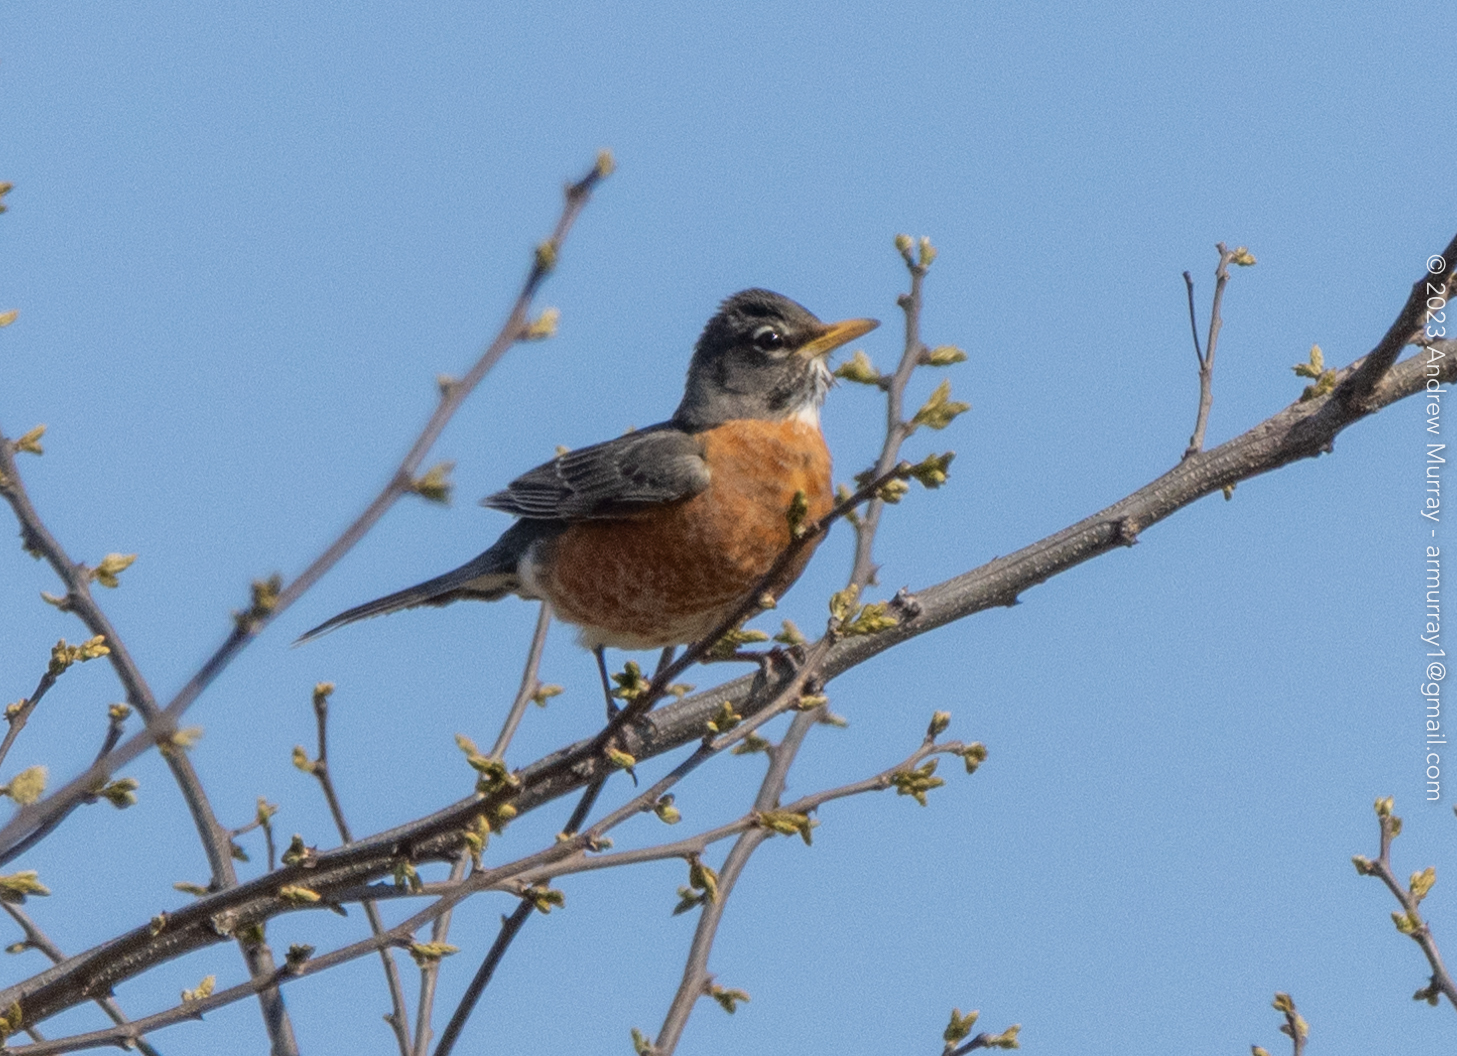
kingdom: Animalia
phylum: Chordata
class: Aves
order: Passeriformes
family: Turdidae
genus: Turdus
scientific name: Turdus migratorius
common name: American robin
